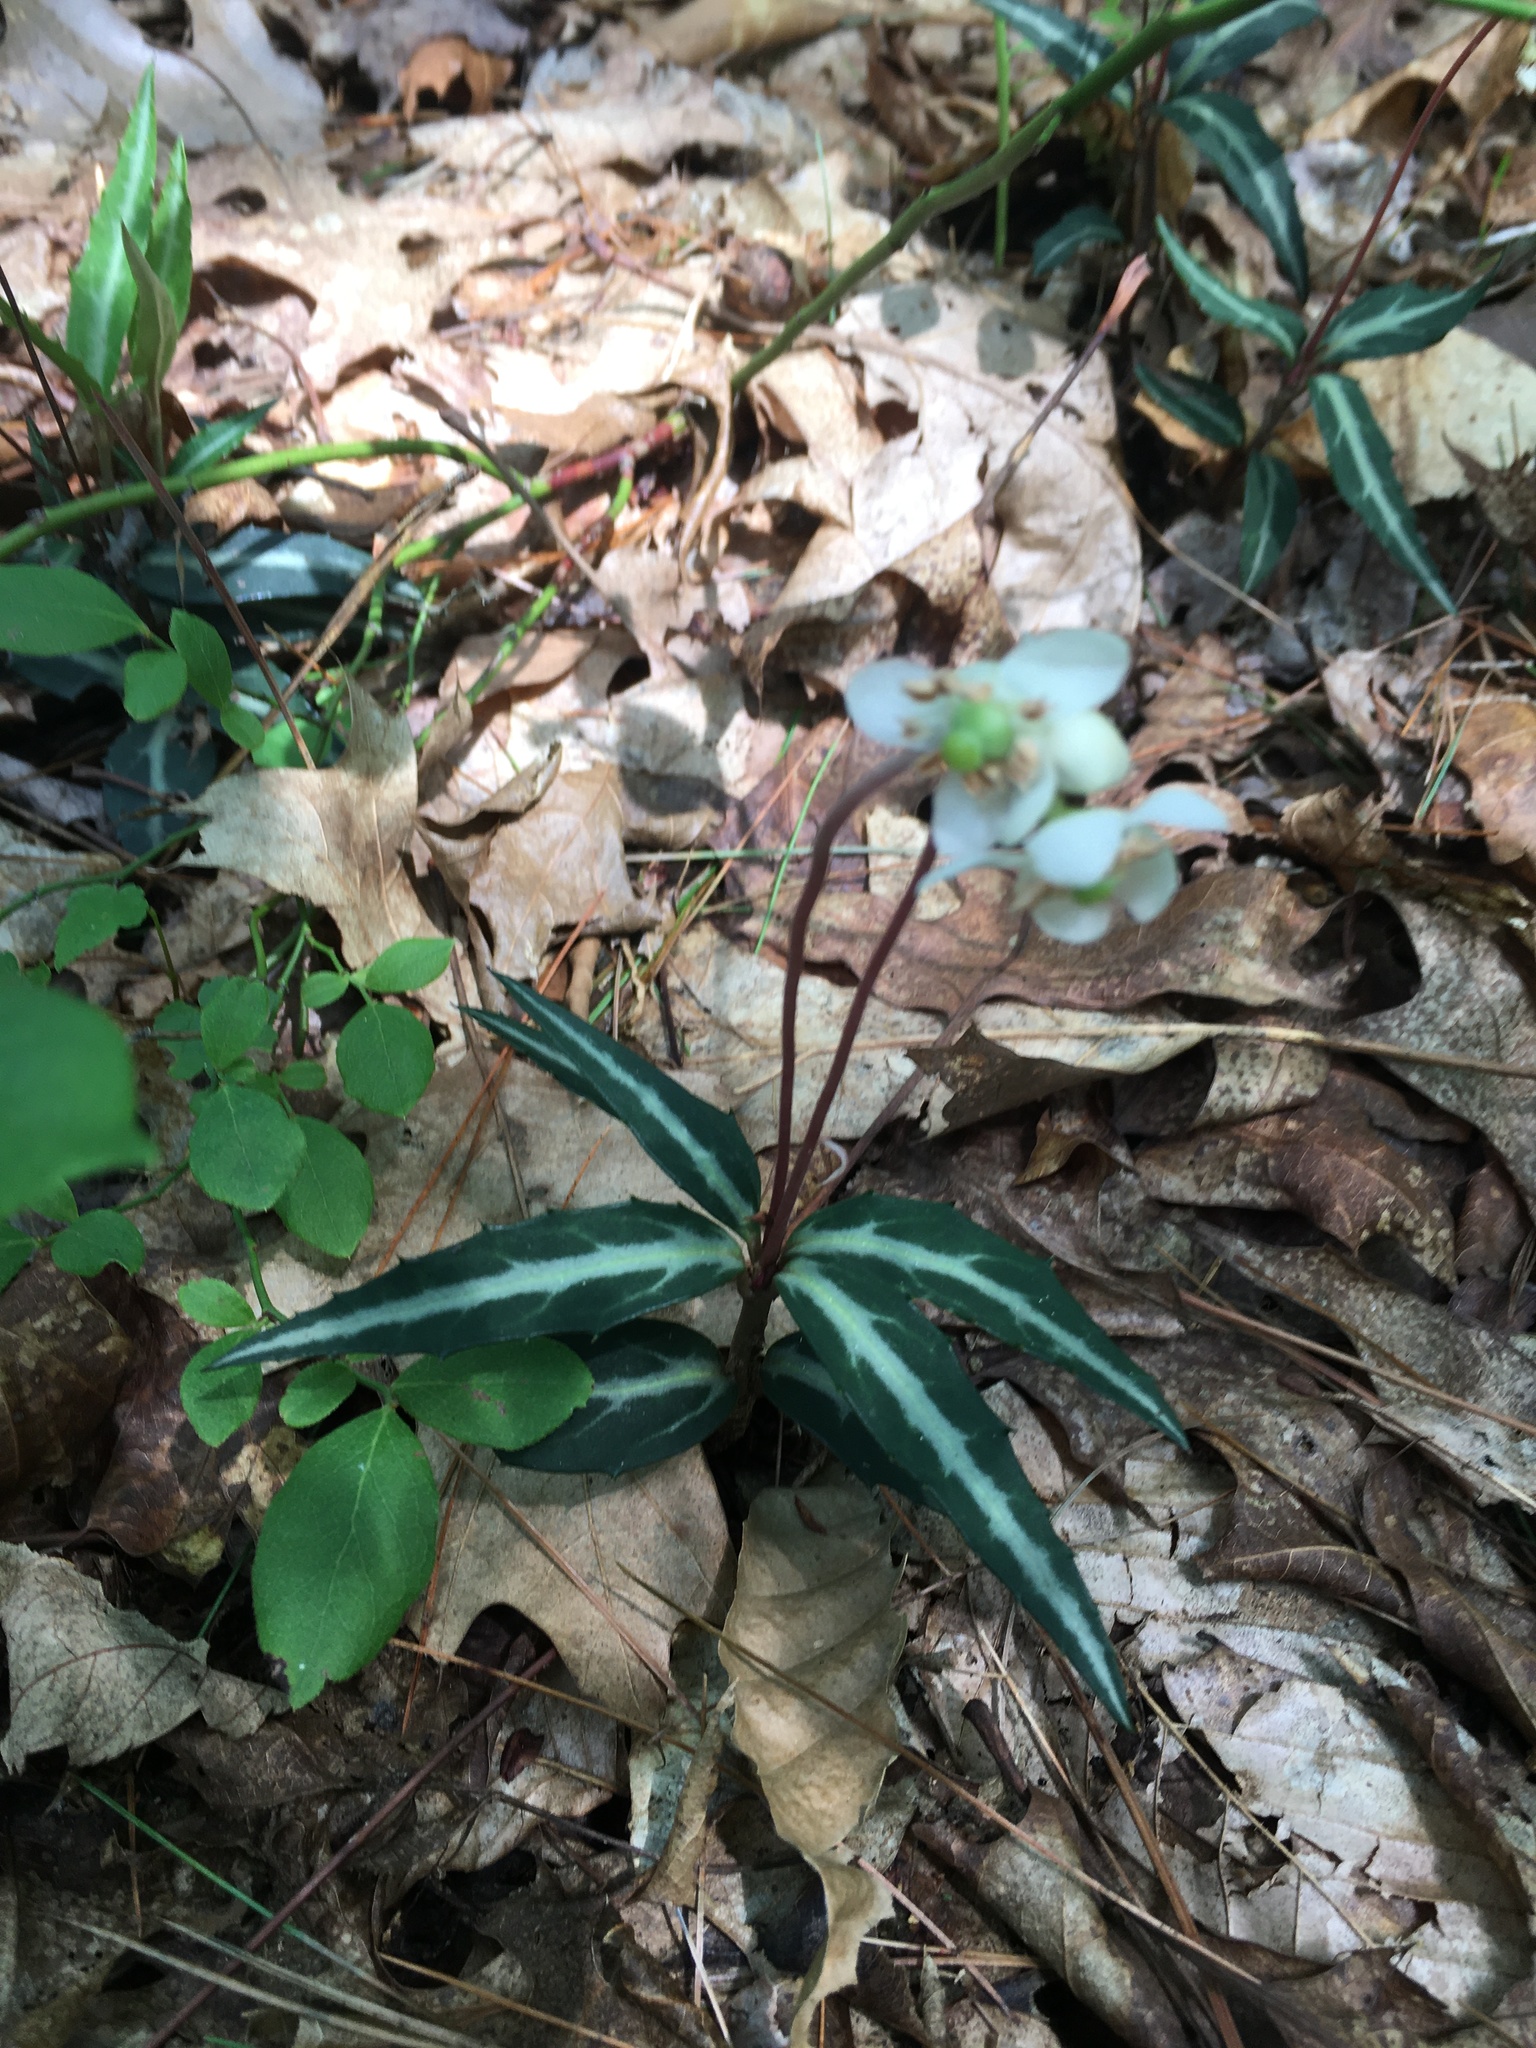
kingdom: Plantae
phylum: Tracheophyta
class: Magnoliopsida
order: Ericales
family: Ericaceae
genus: Chimaphila
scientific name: Chimaphila maculata
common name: Spotted pipsissewa
